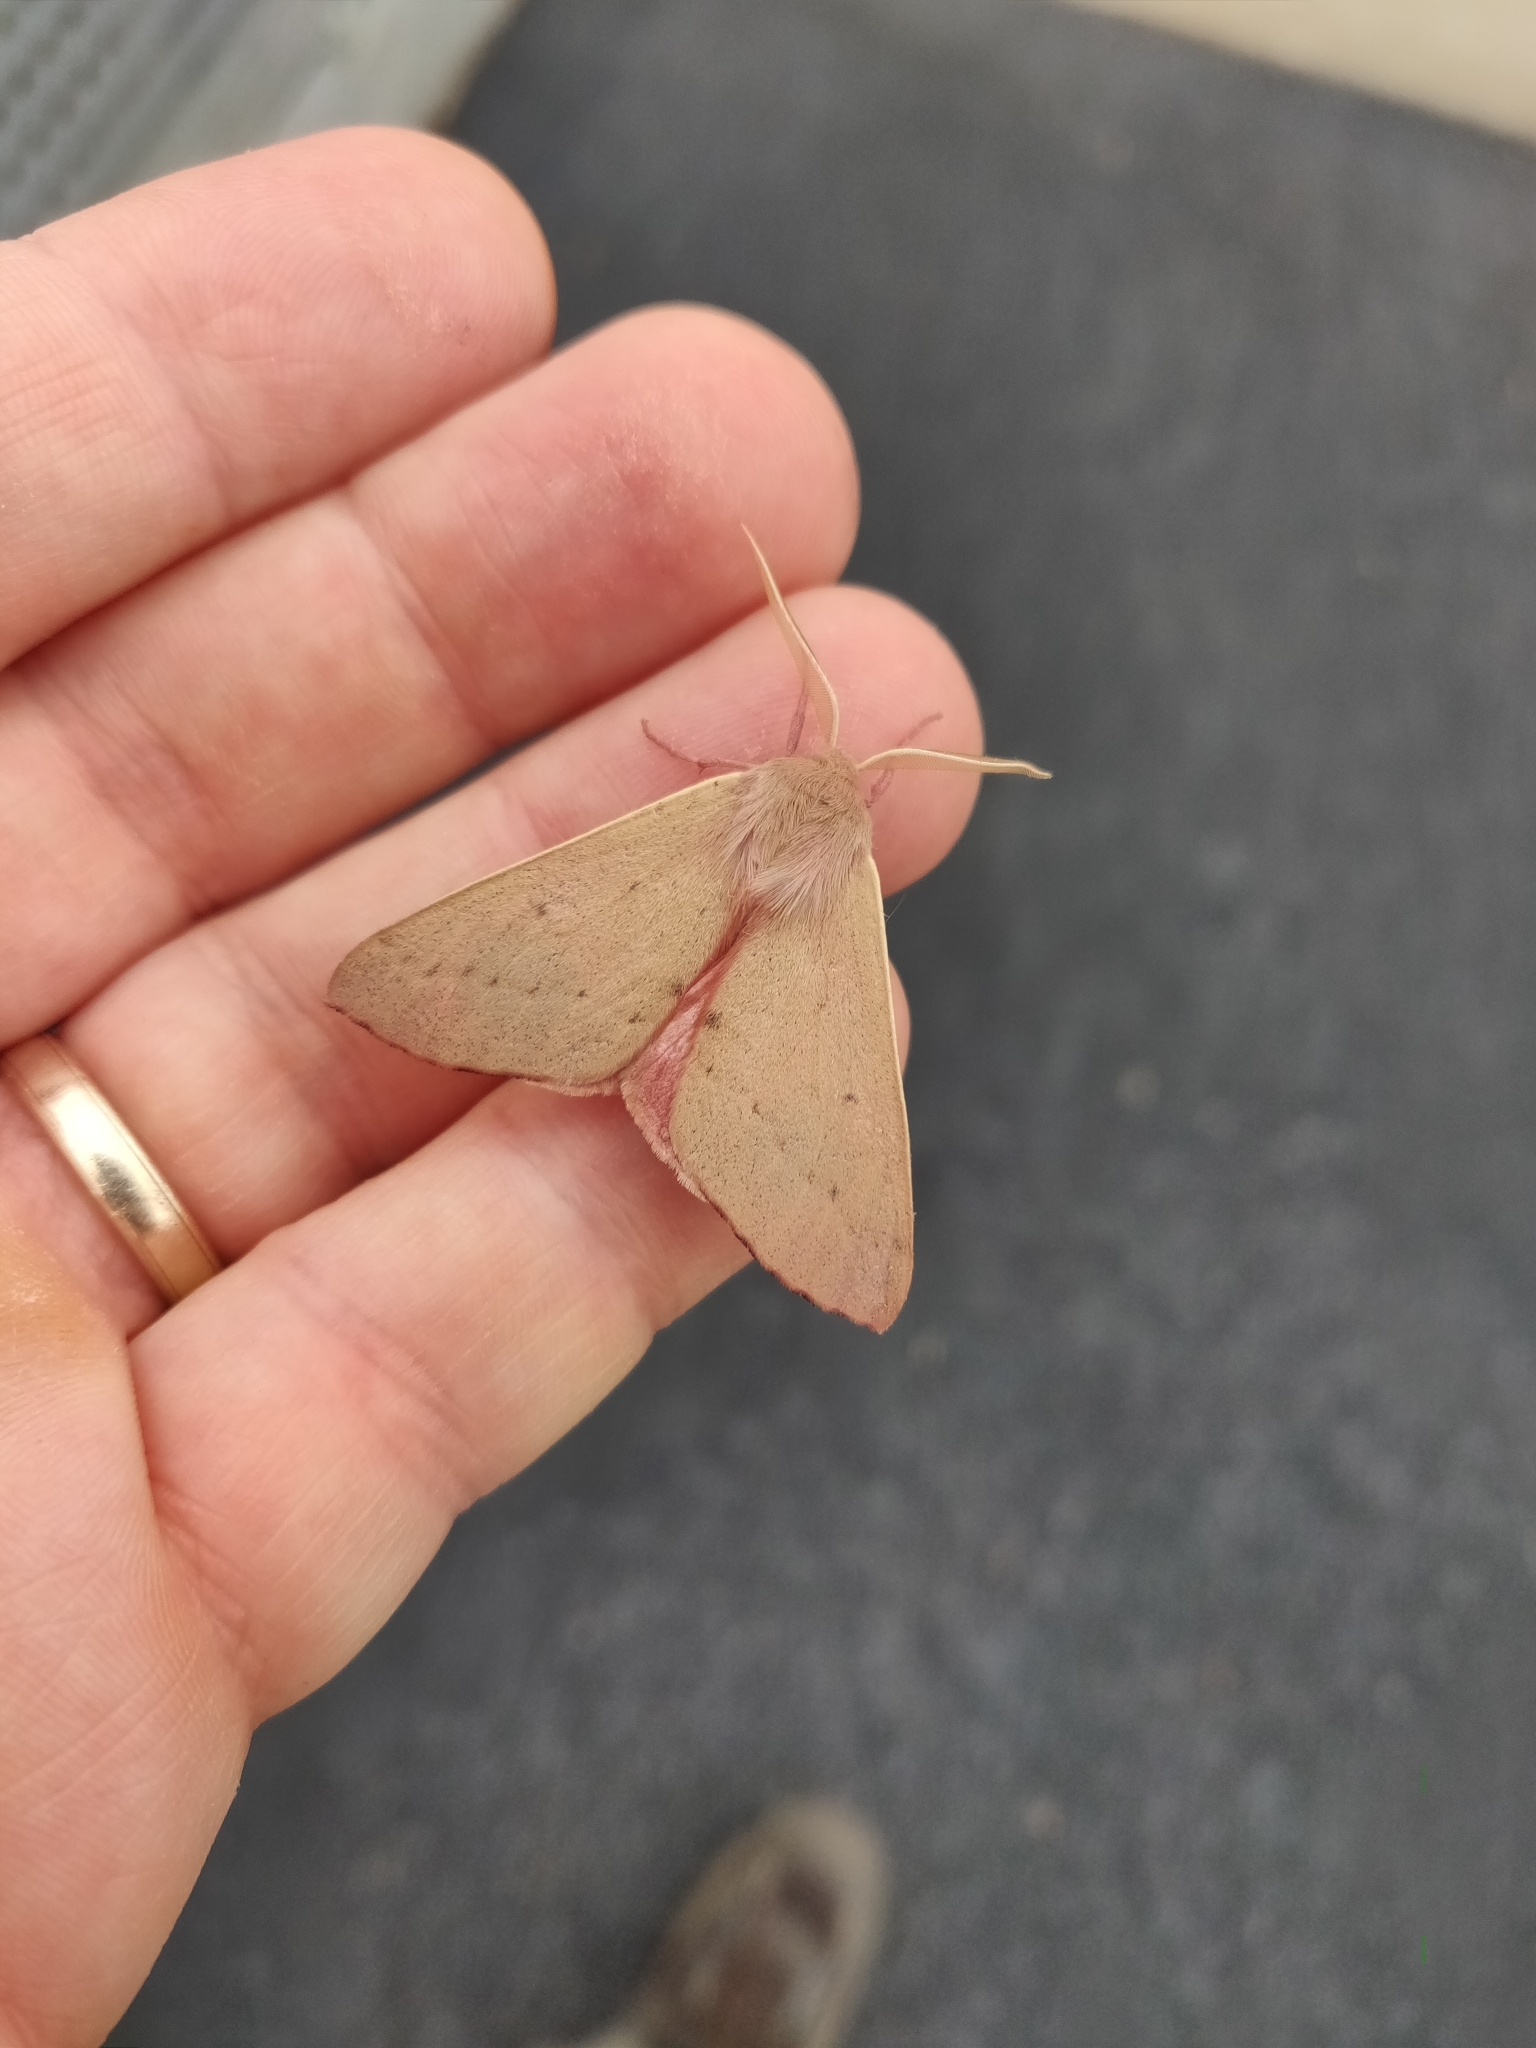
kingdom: Animalia
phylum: Arthropoda
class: Insecta
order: Lepidoptera
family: Geometridae
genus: Arhodia
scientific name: Arhodia lasiocamparia
